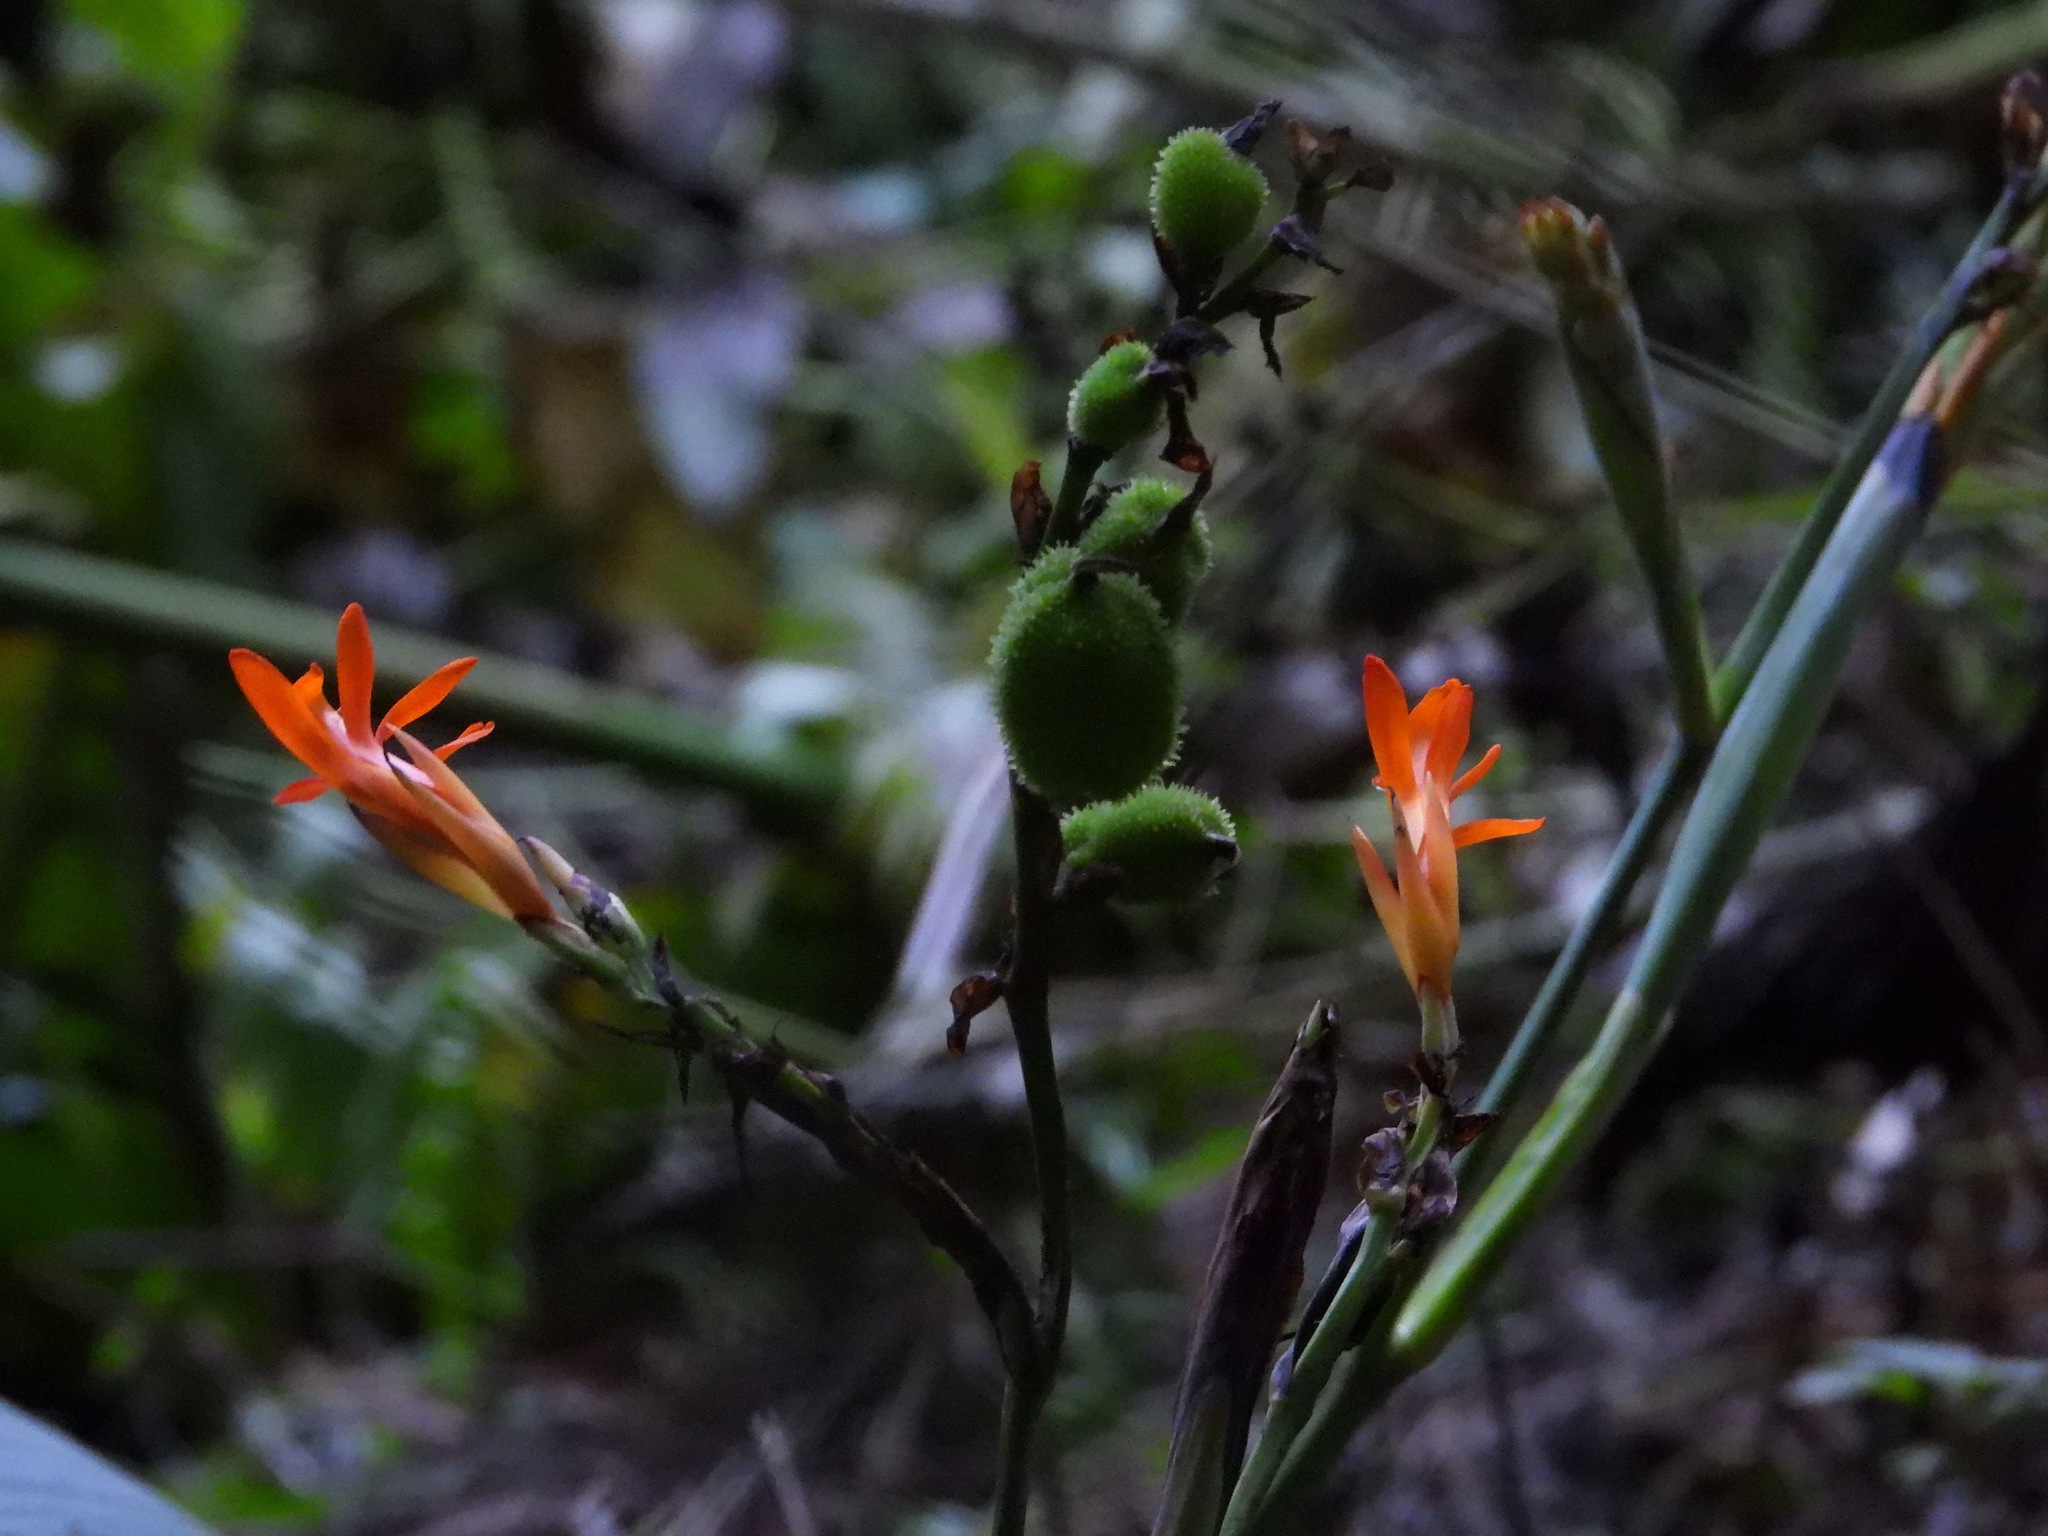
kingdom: Plantae
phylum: Tracheophyta
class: Liliopsida
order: Zingiberales
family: Cannaceae
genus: Canna
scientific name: Canna indica
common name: Indian shot
